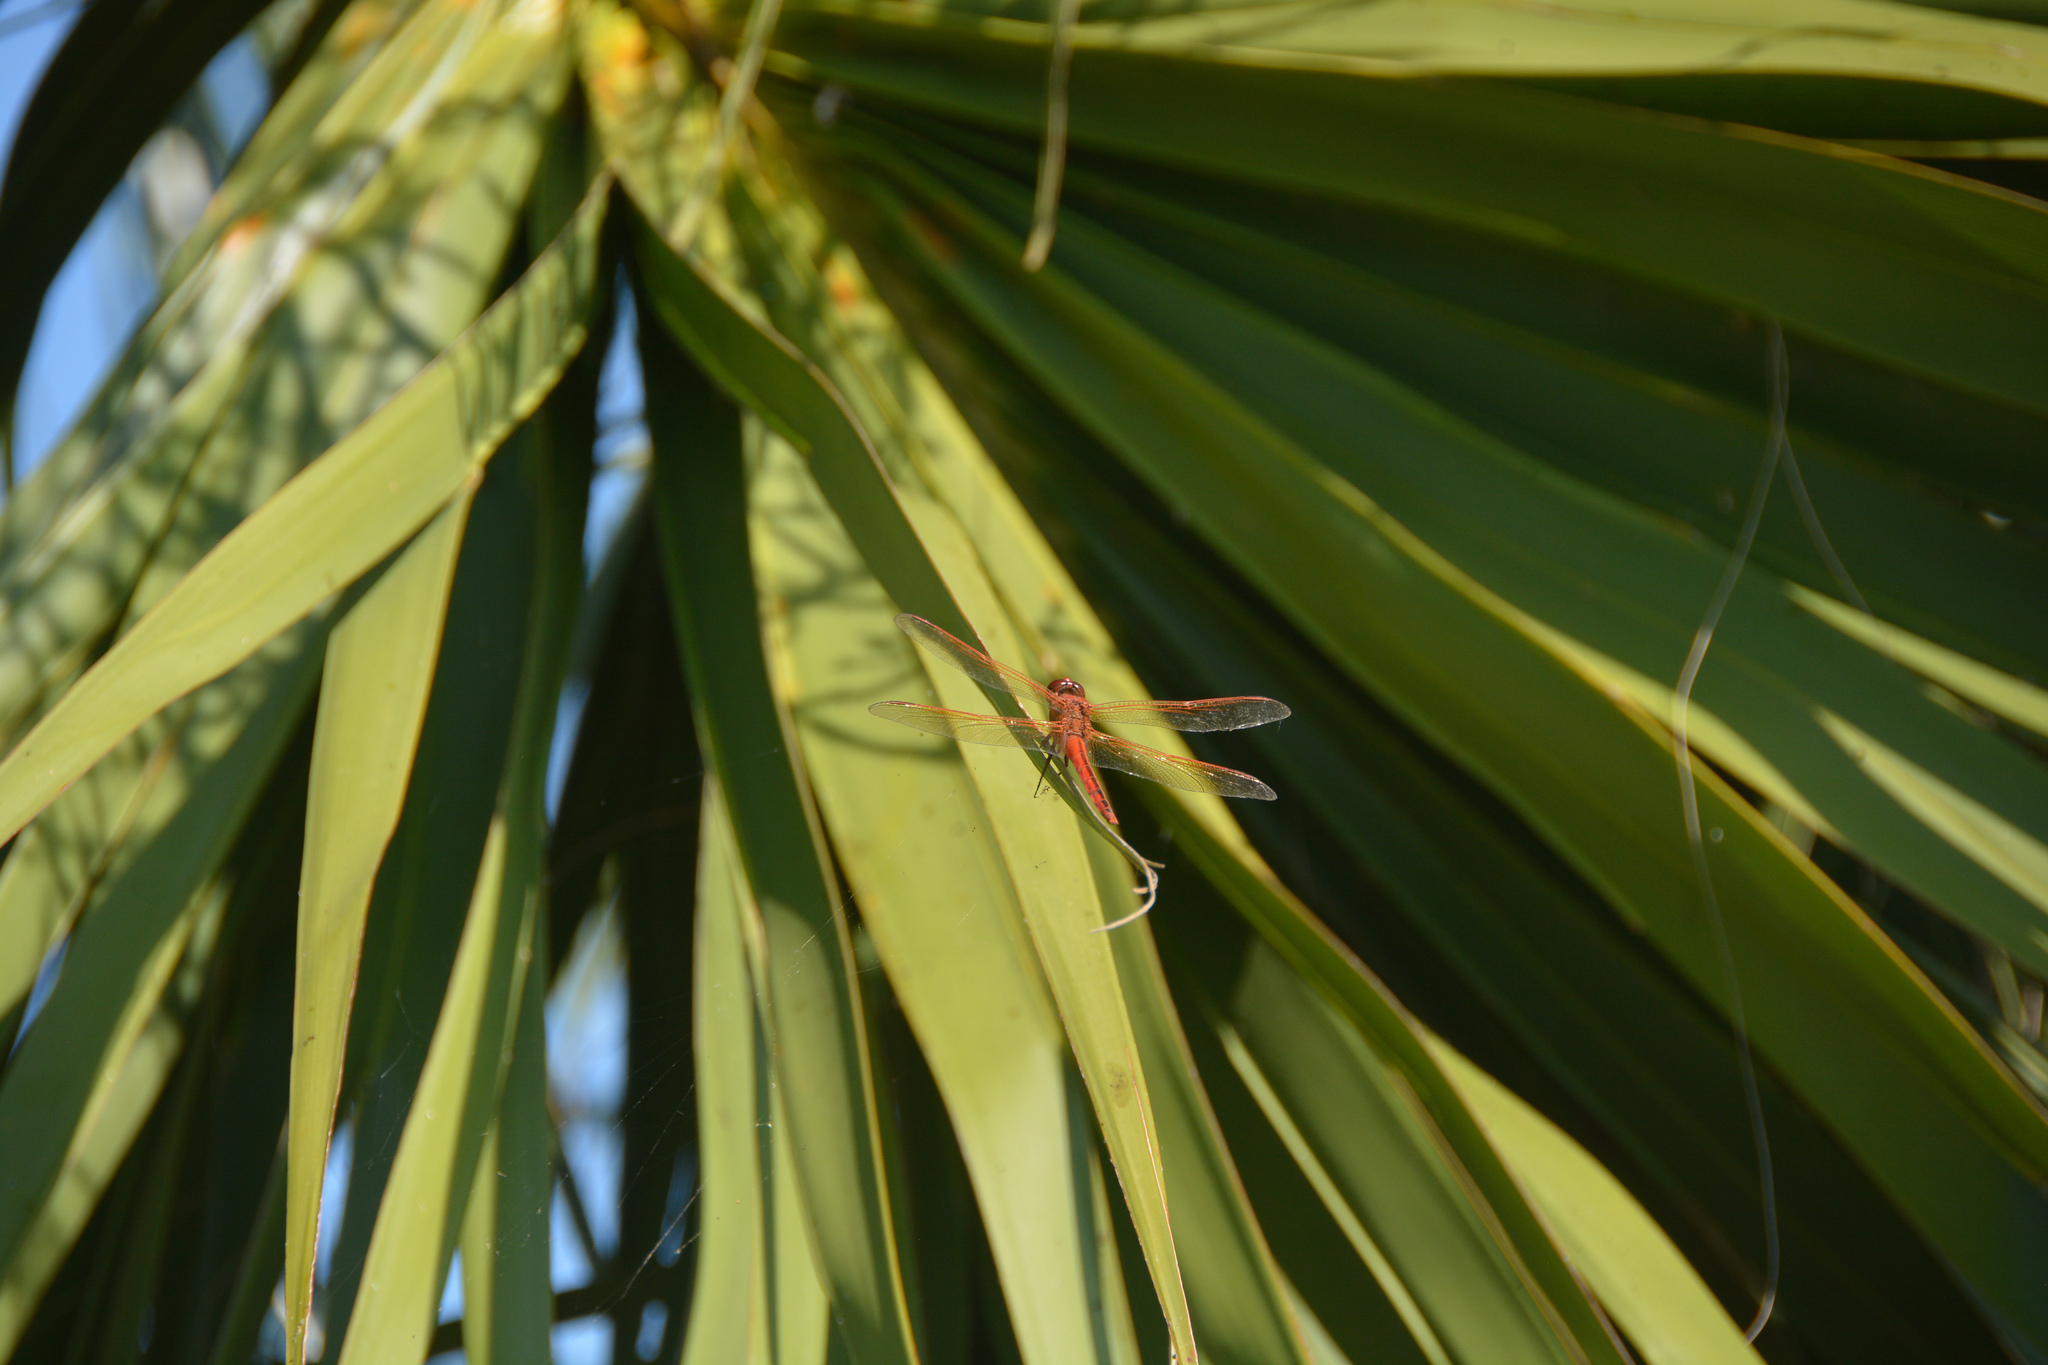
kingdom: Animalia
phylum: Arthropoda
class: Insecta
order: Odonata
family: Libellulidae
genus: Libellula
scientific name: Libellula needhami
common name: Needham's skimmer
